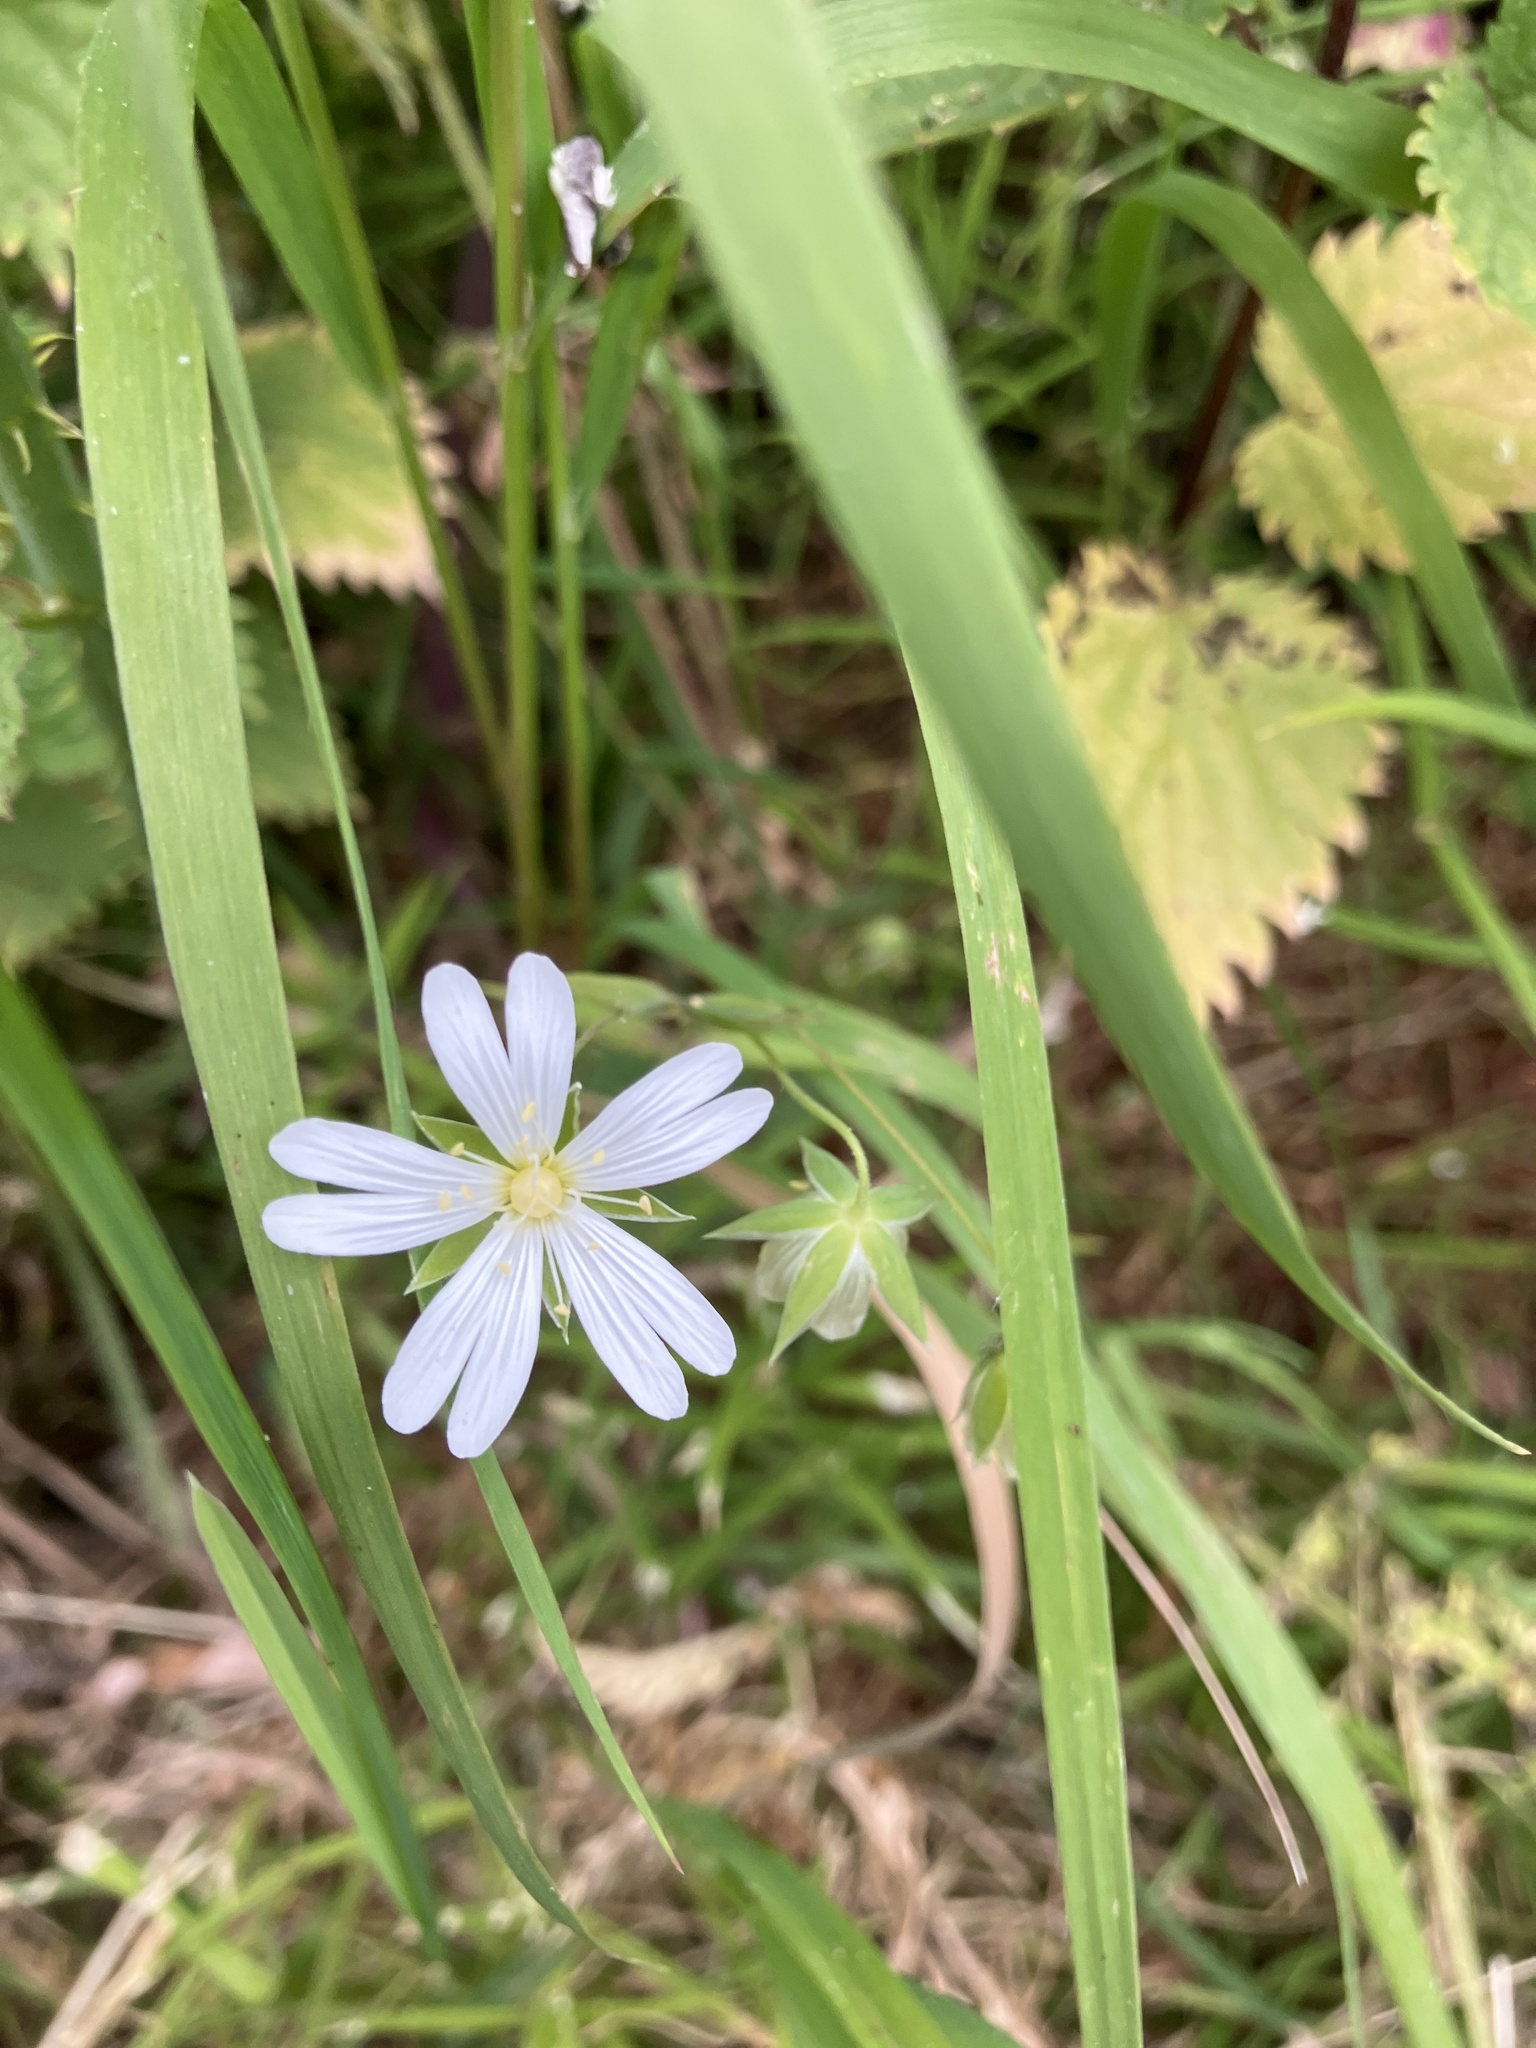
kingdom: Plantae
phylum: Tracheophyta
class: Magnoliopsida
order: Caryophyllales
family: Caryophyllaceae
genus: Rabelera
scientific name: Rabelera holostea
